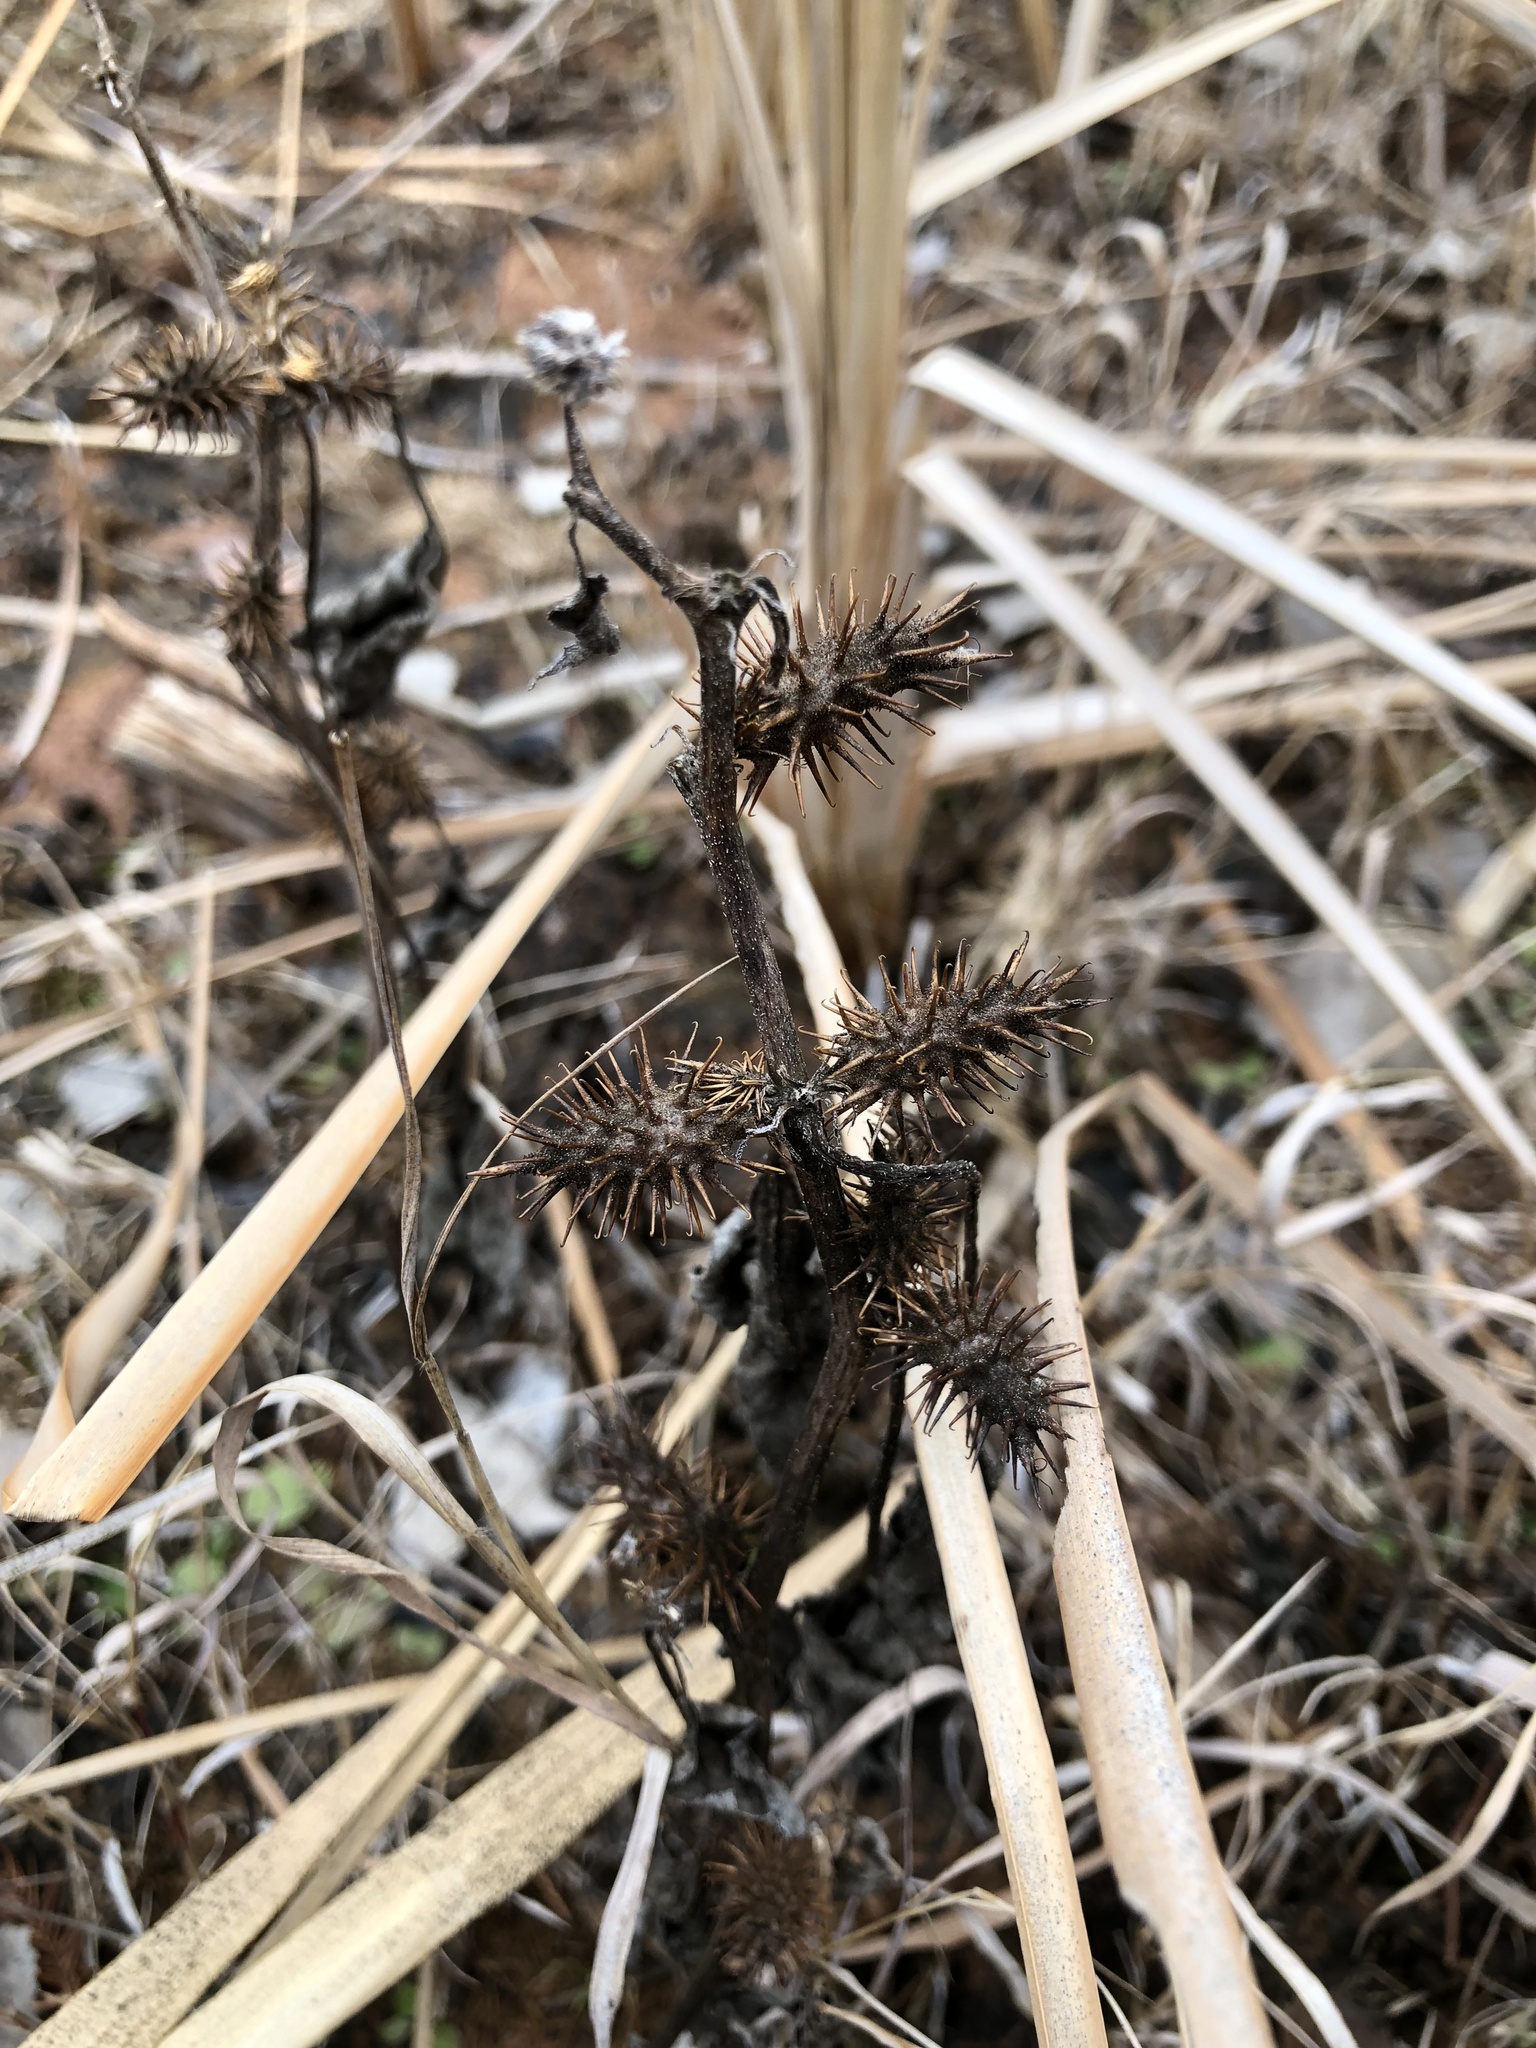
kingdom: Plantae
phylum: Tracheophyta
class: Magnoliopsida
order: Asterales
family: Asteraceae
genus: Xanthium
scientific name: Xanthium strumarium
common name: Rough cocklebur
